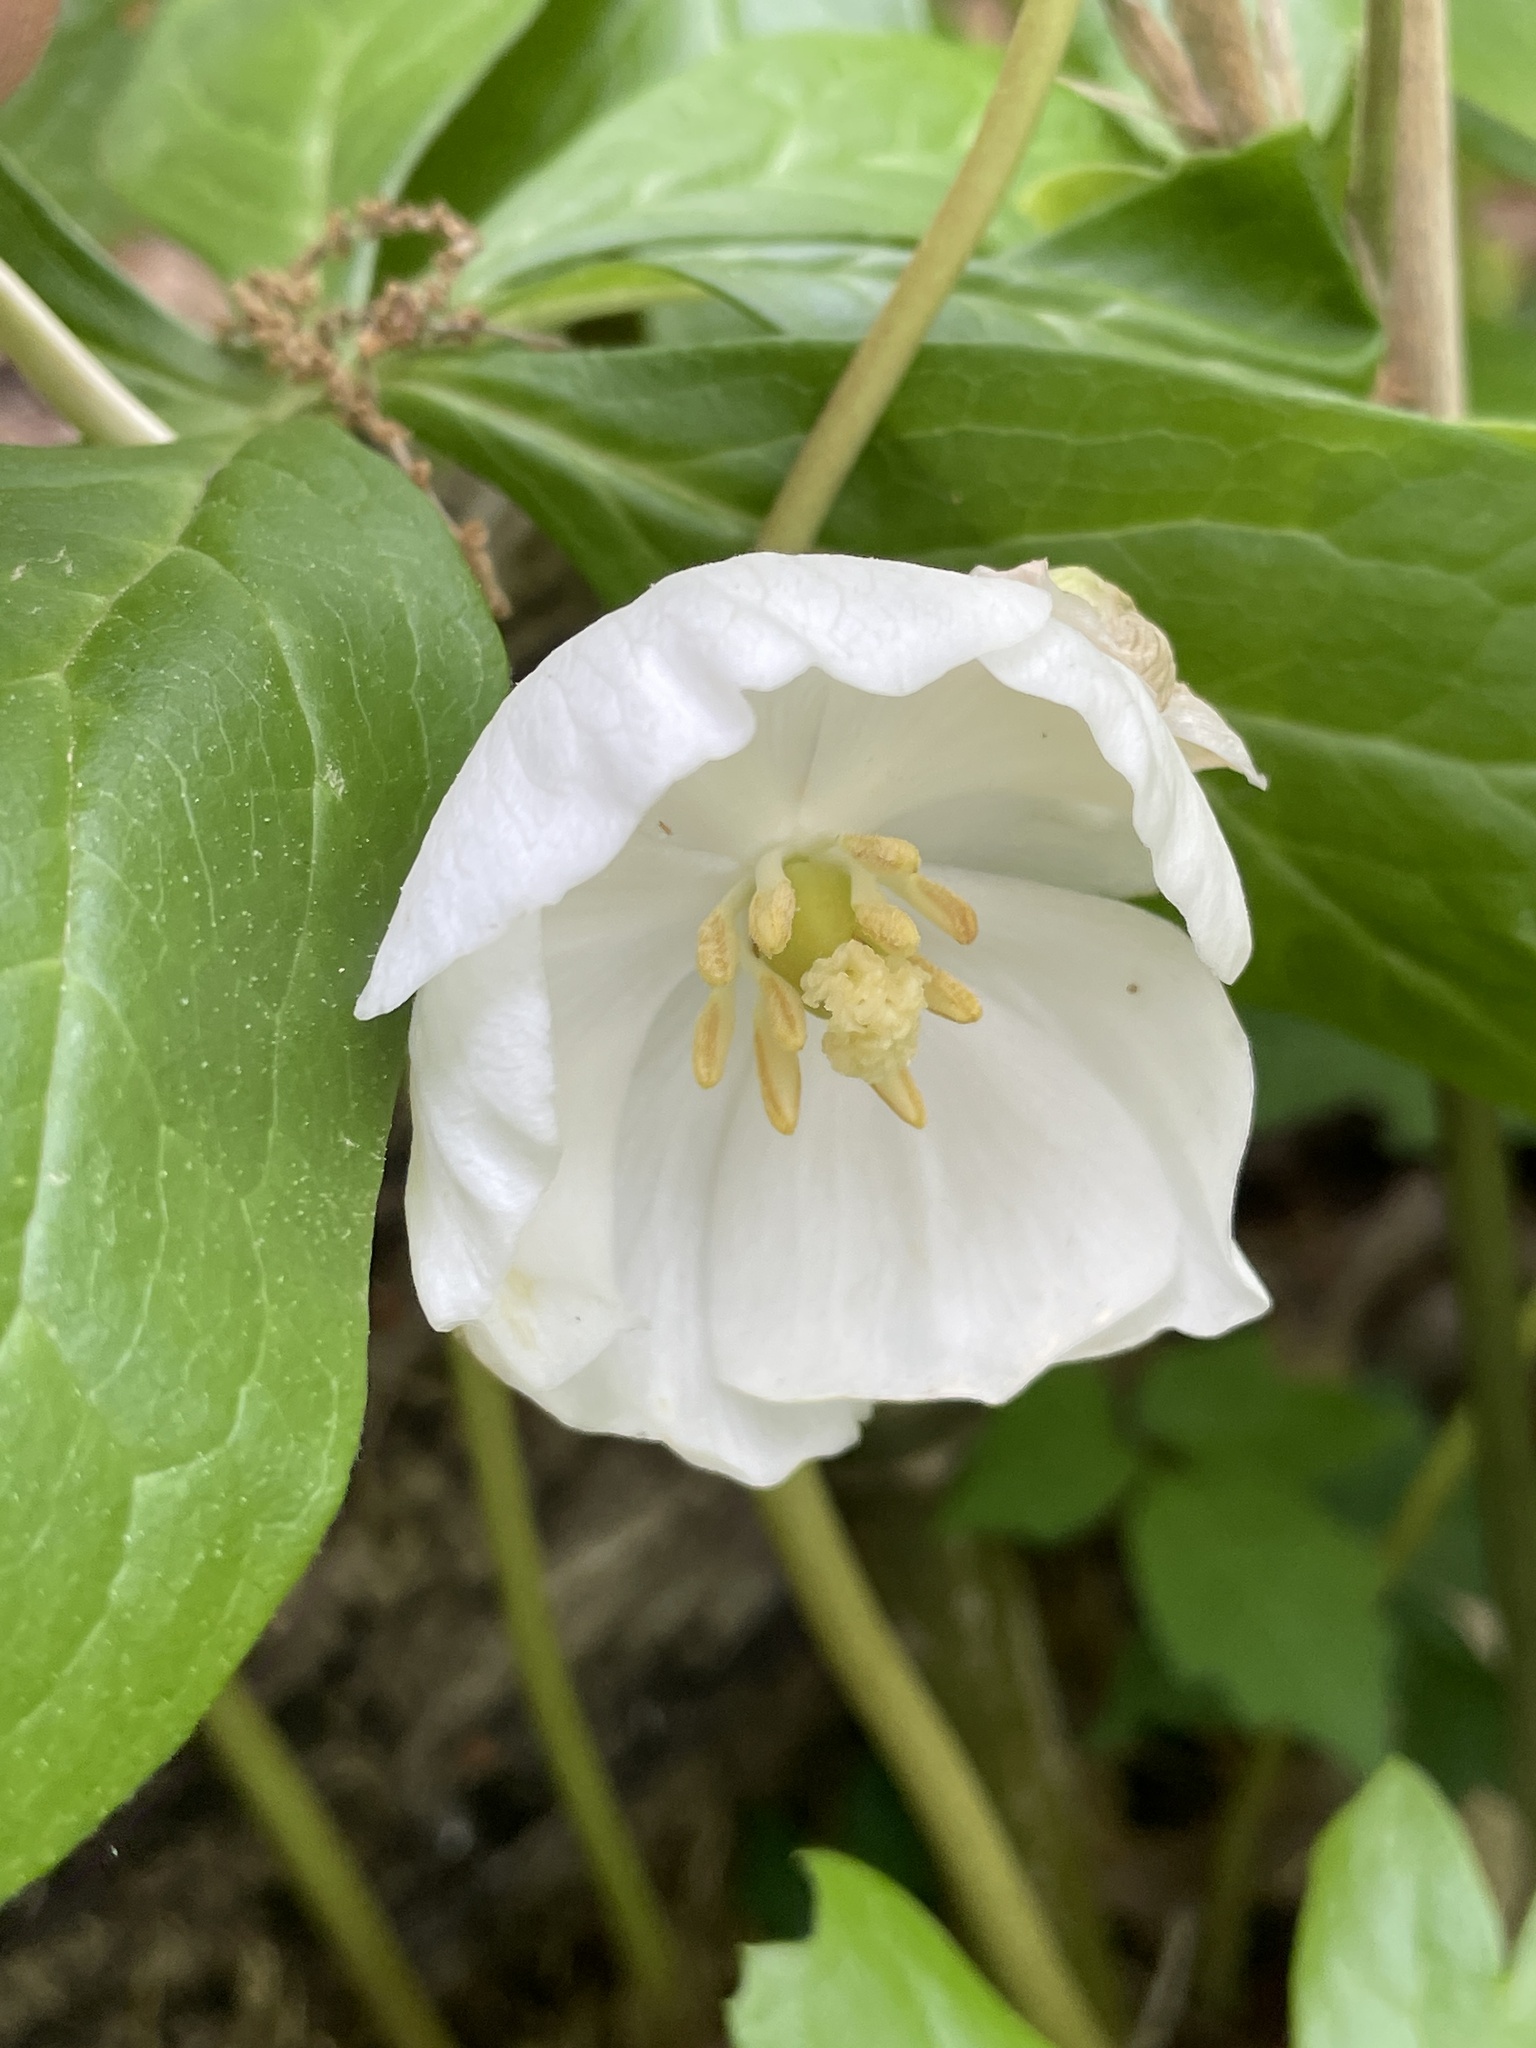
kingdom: Plantae
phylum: Tracheophyta
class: Magnoliopsida
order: Ranunculales
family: Berberidaceae
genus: Podophyllum
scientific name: Podophyllum peltatum
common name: Wild mandrake
